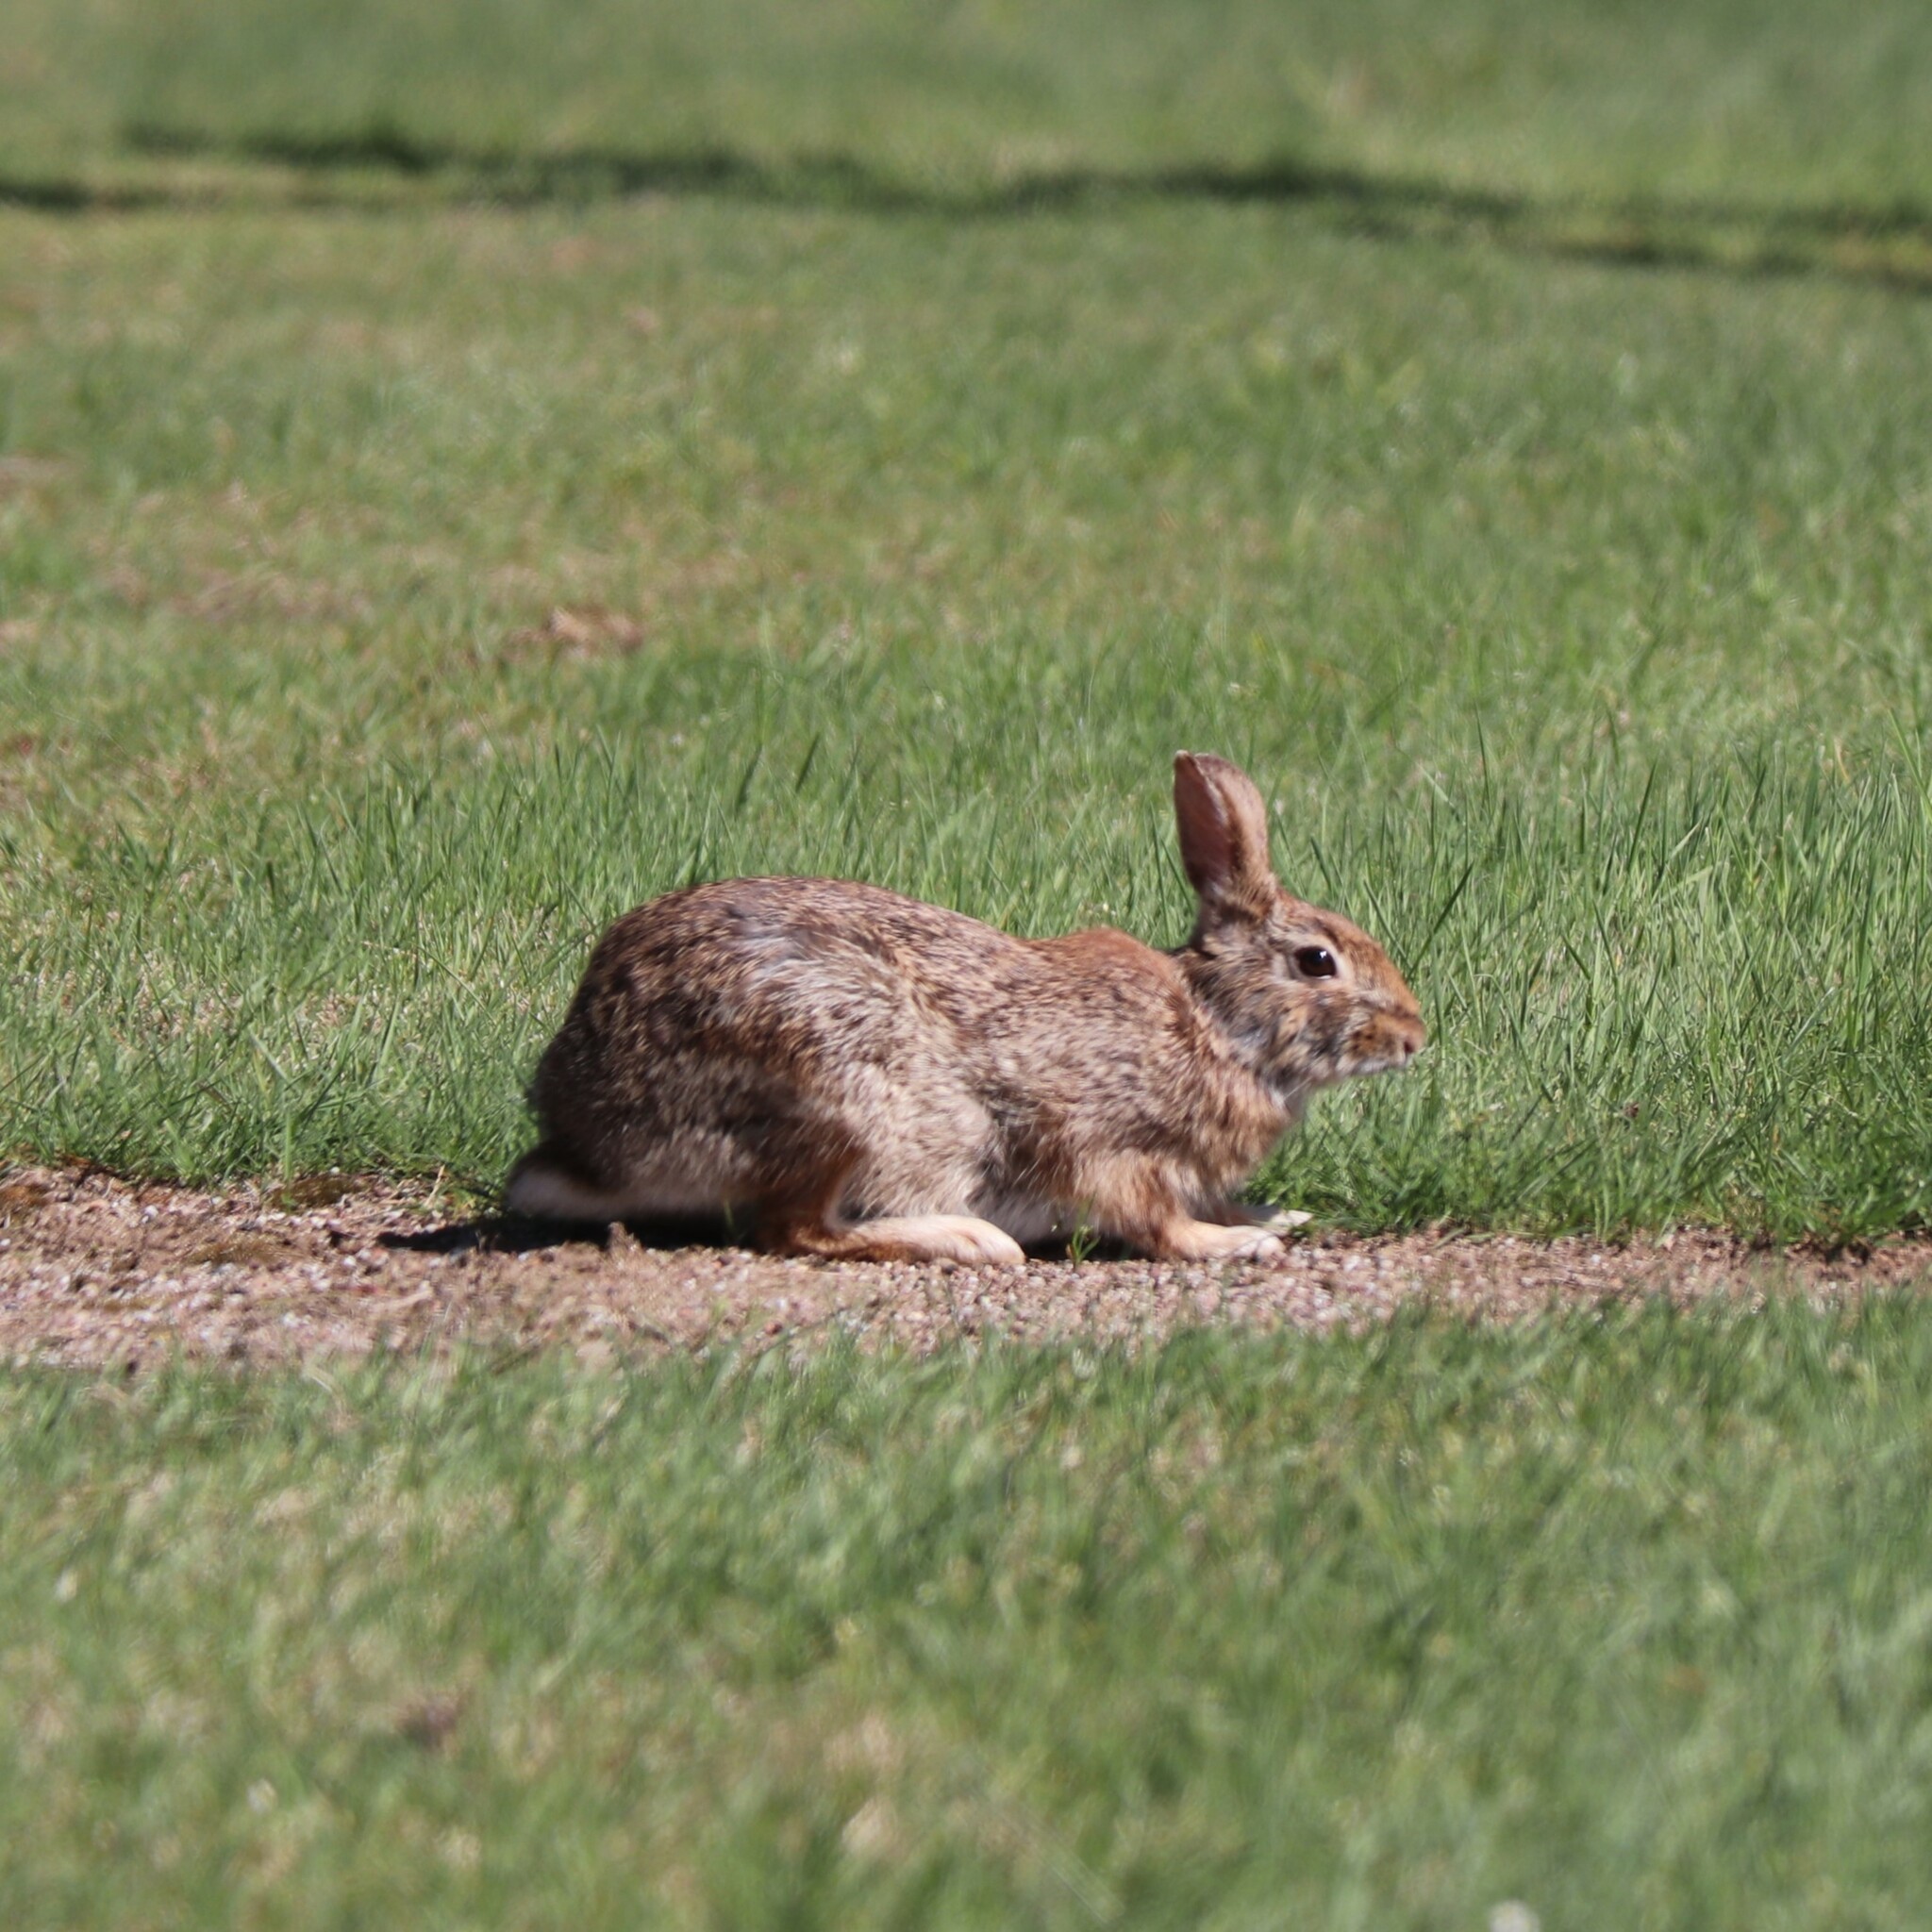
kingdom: Animalia
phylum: Chordata
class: Mammalia
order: Lagomorpha
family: Leporidae
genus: Sylvilagus
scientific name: Sylvilagus floridanus
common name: Eastern cottontail
